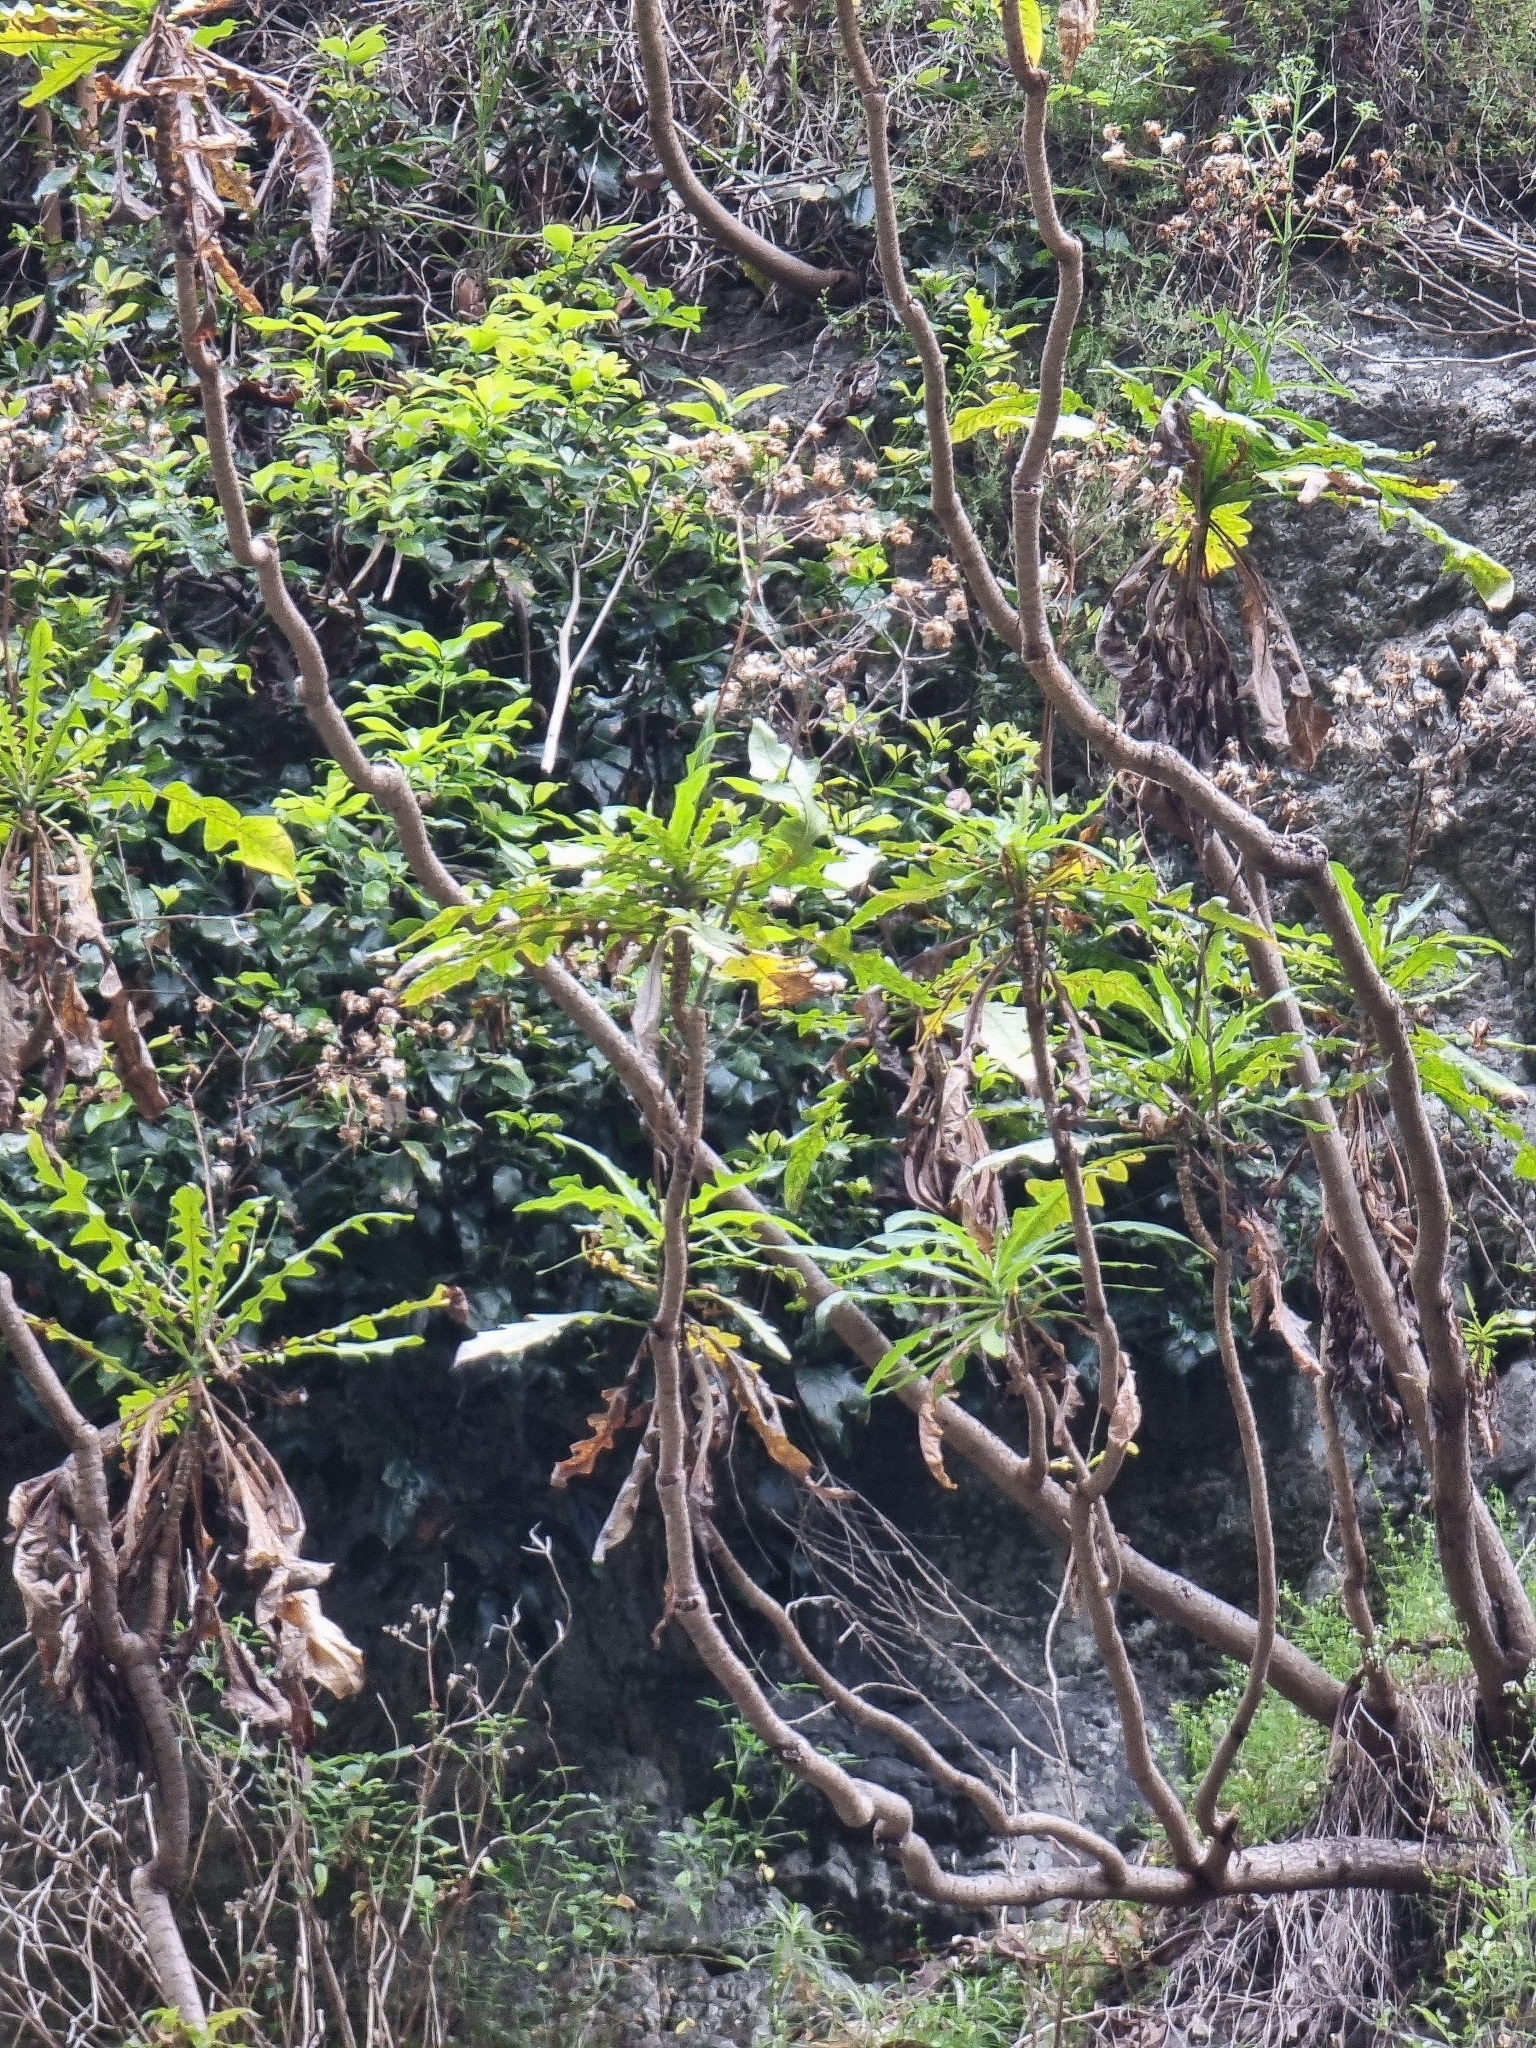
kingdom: Plantae
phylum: Tracheophyta
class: Magnoliopsida
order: Asterales
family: Asteraceae
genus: Sonchus
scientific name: Sonchus fruticosus
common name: Shrubby sow-thistle
